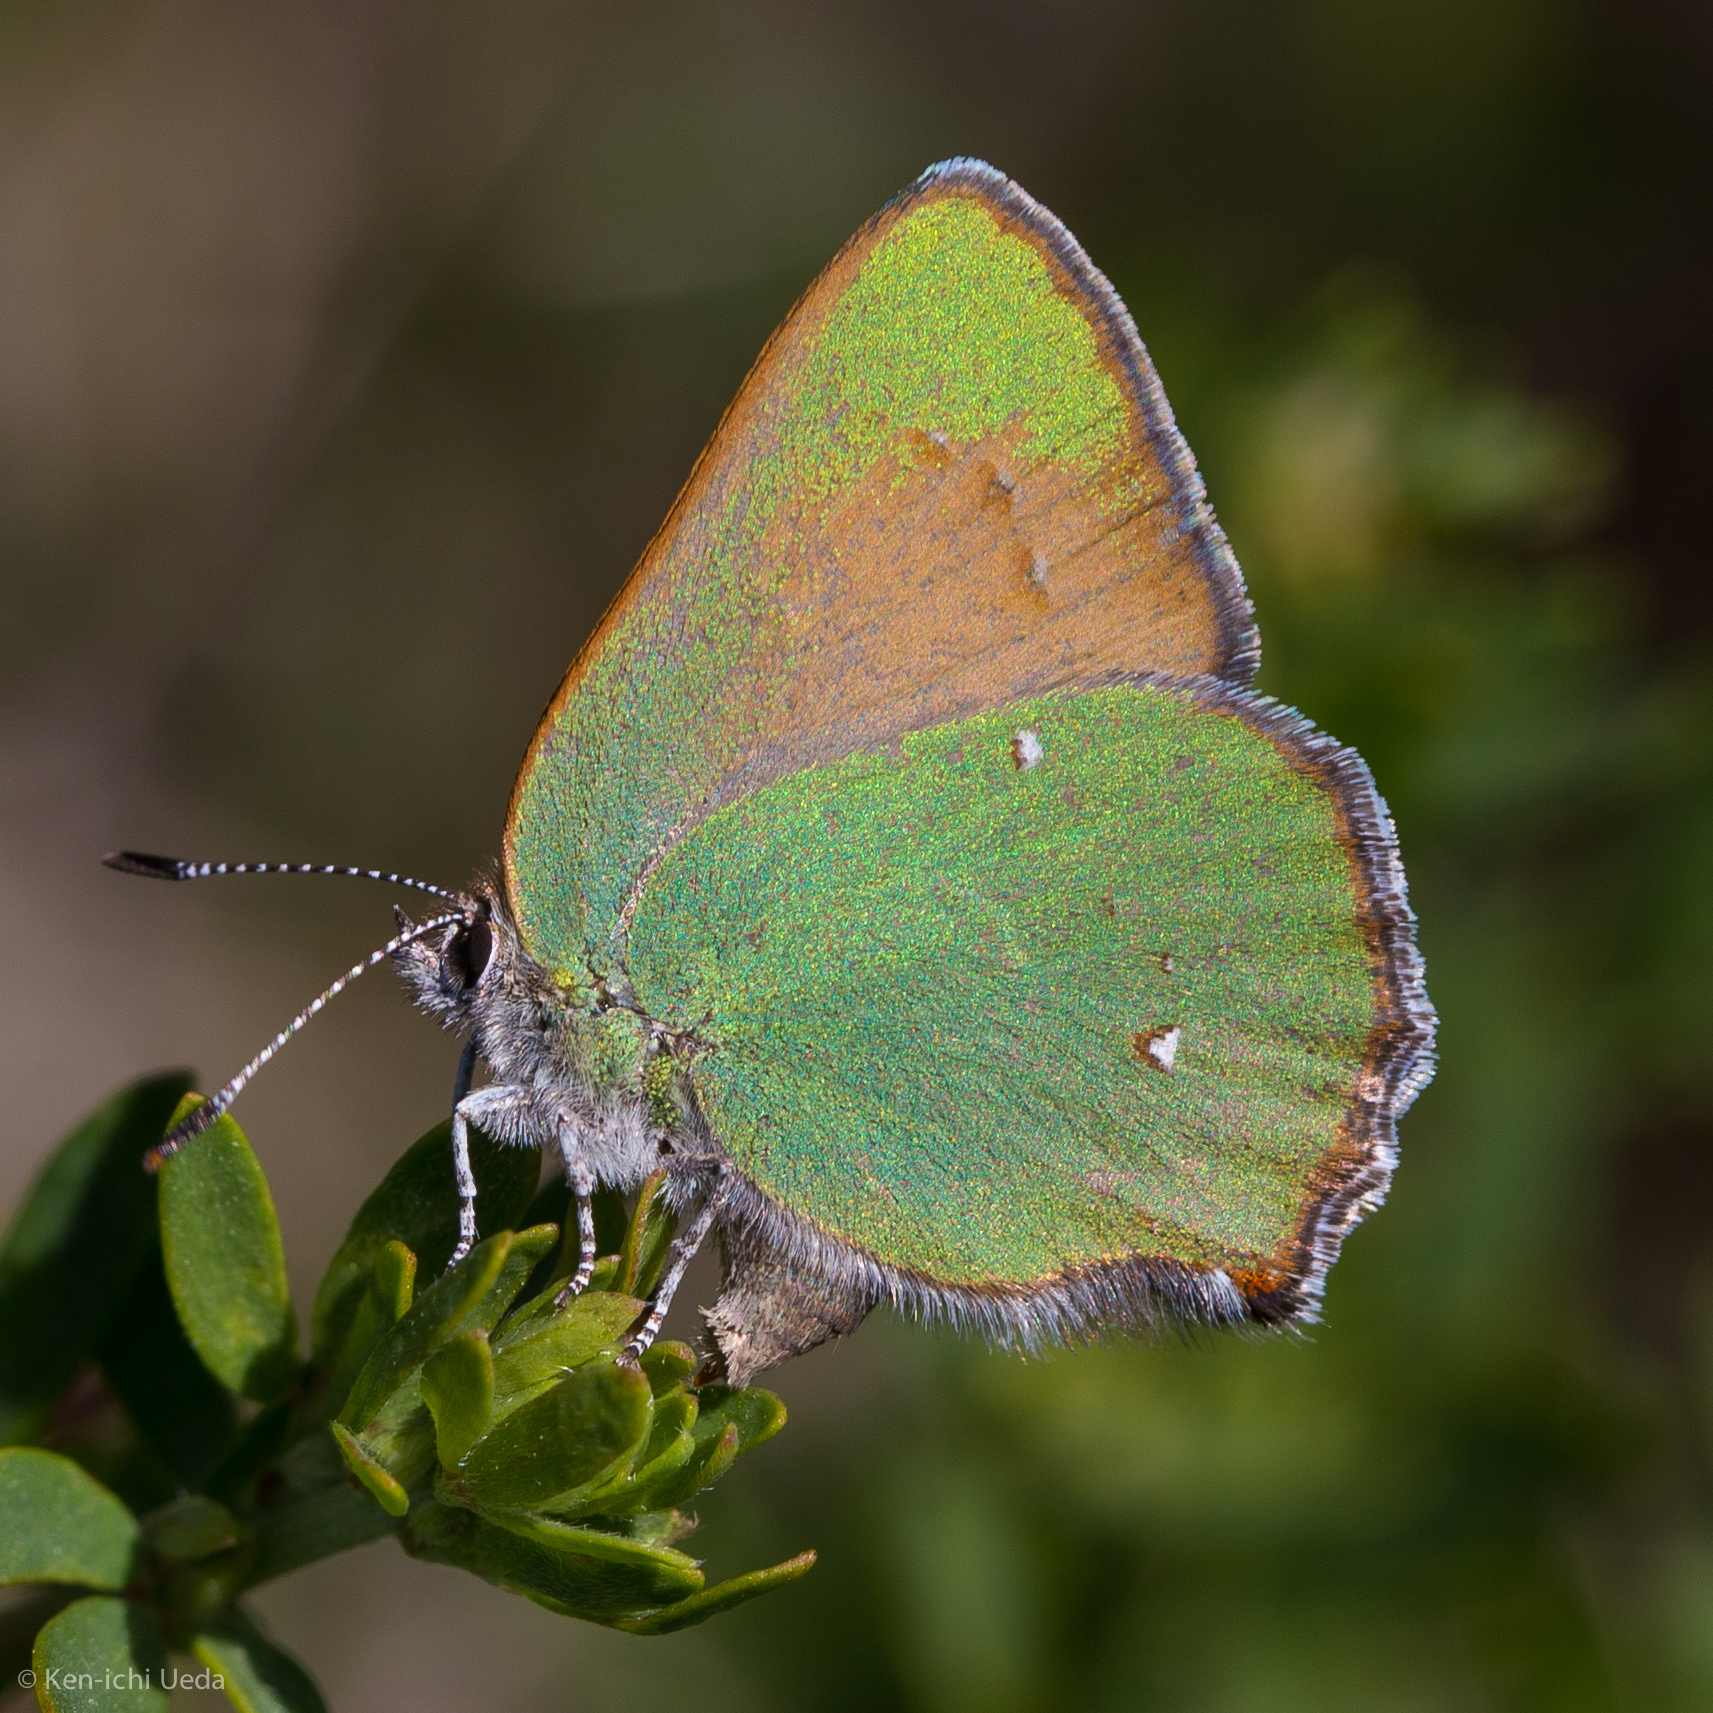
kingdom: Animalia
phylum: Arthropoda
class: Insecta
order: Lepidoptera
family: Lycaenidae
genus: Callophrys
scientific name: Callophrys dumetorum
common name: Bramble hairstreak
